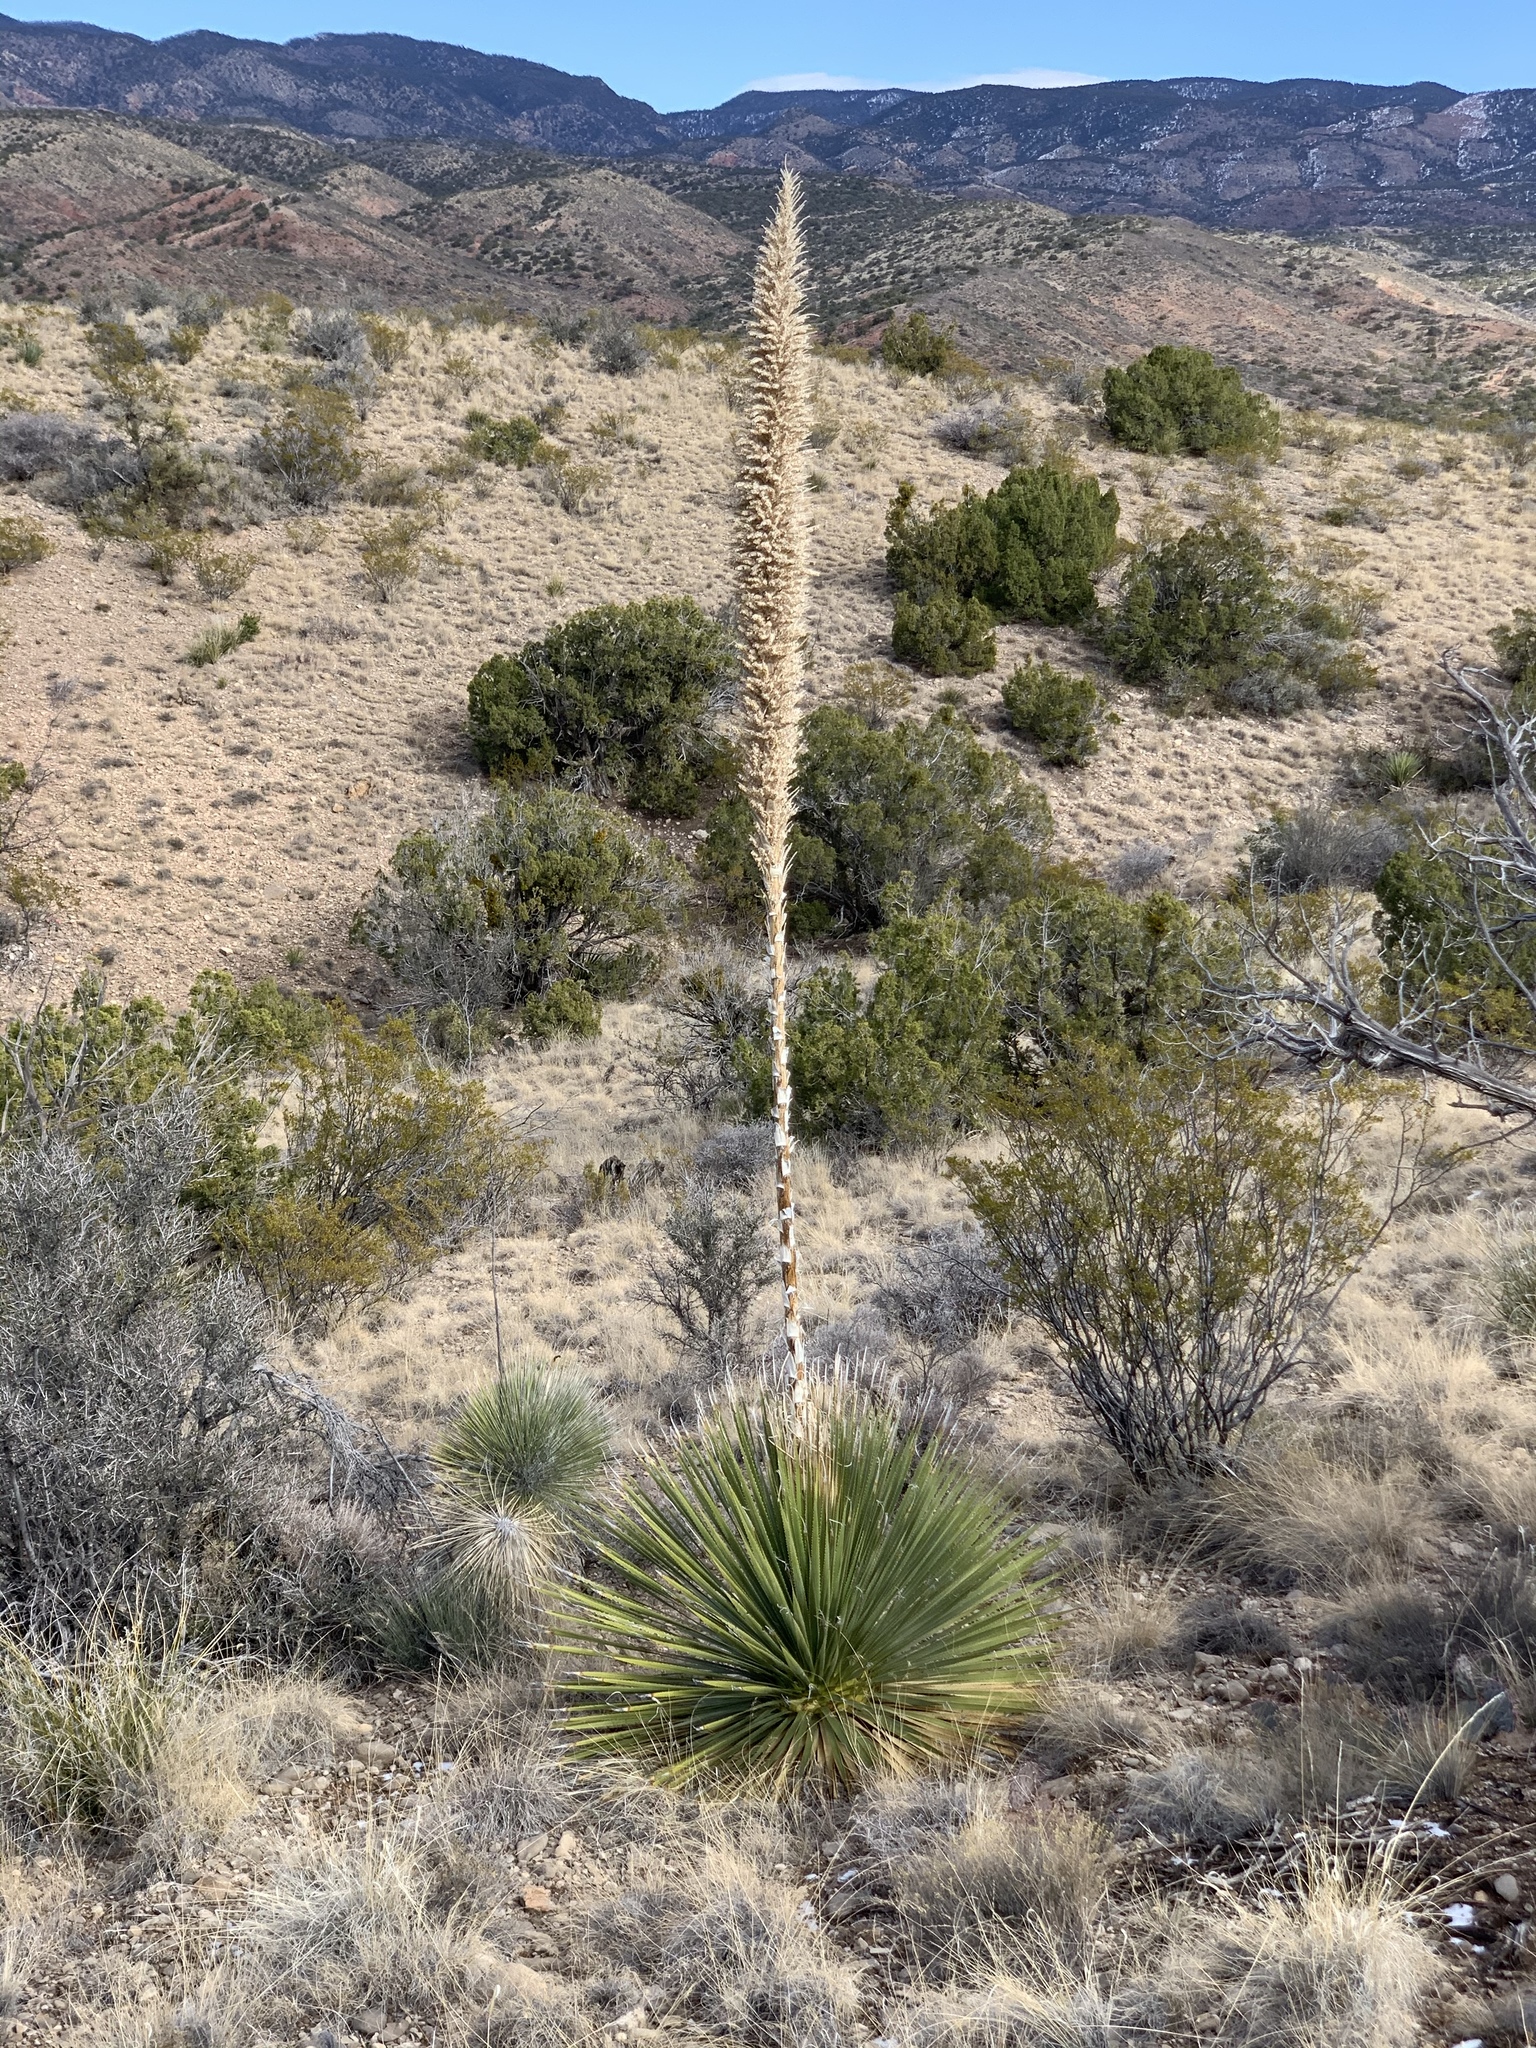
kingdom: Plantae
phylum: Tracheophyta
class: Liliopsida
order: Asparagales
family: Asparagaceae
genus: Dasylirion
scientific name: Dasylirion wheeleri
